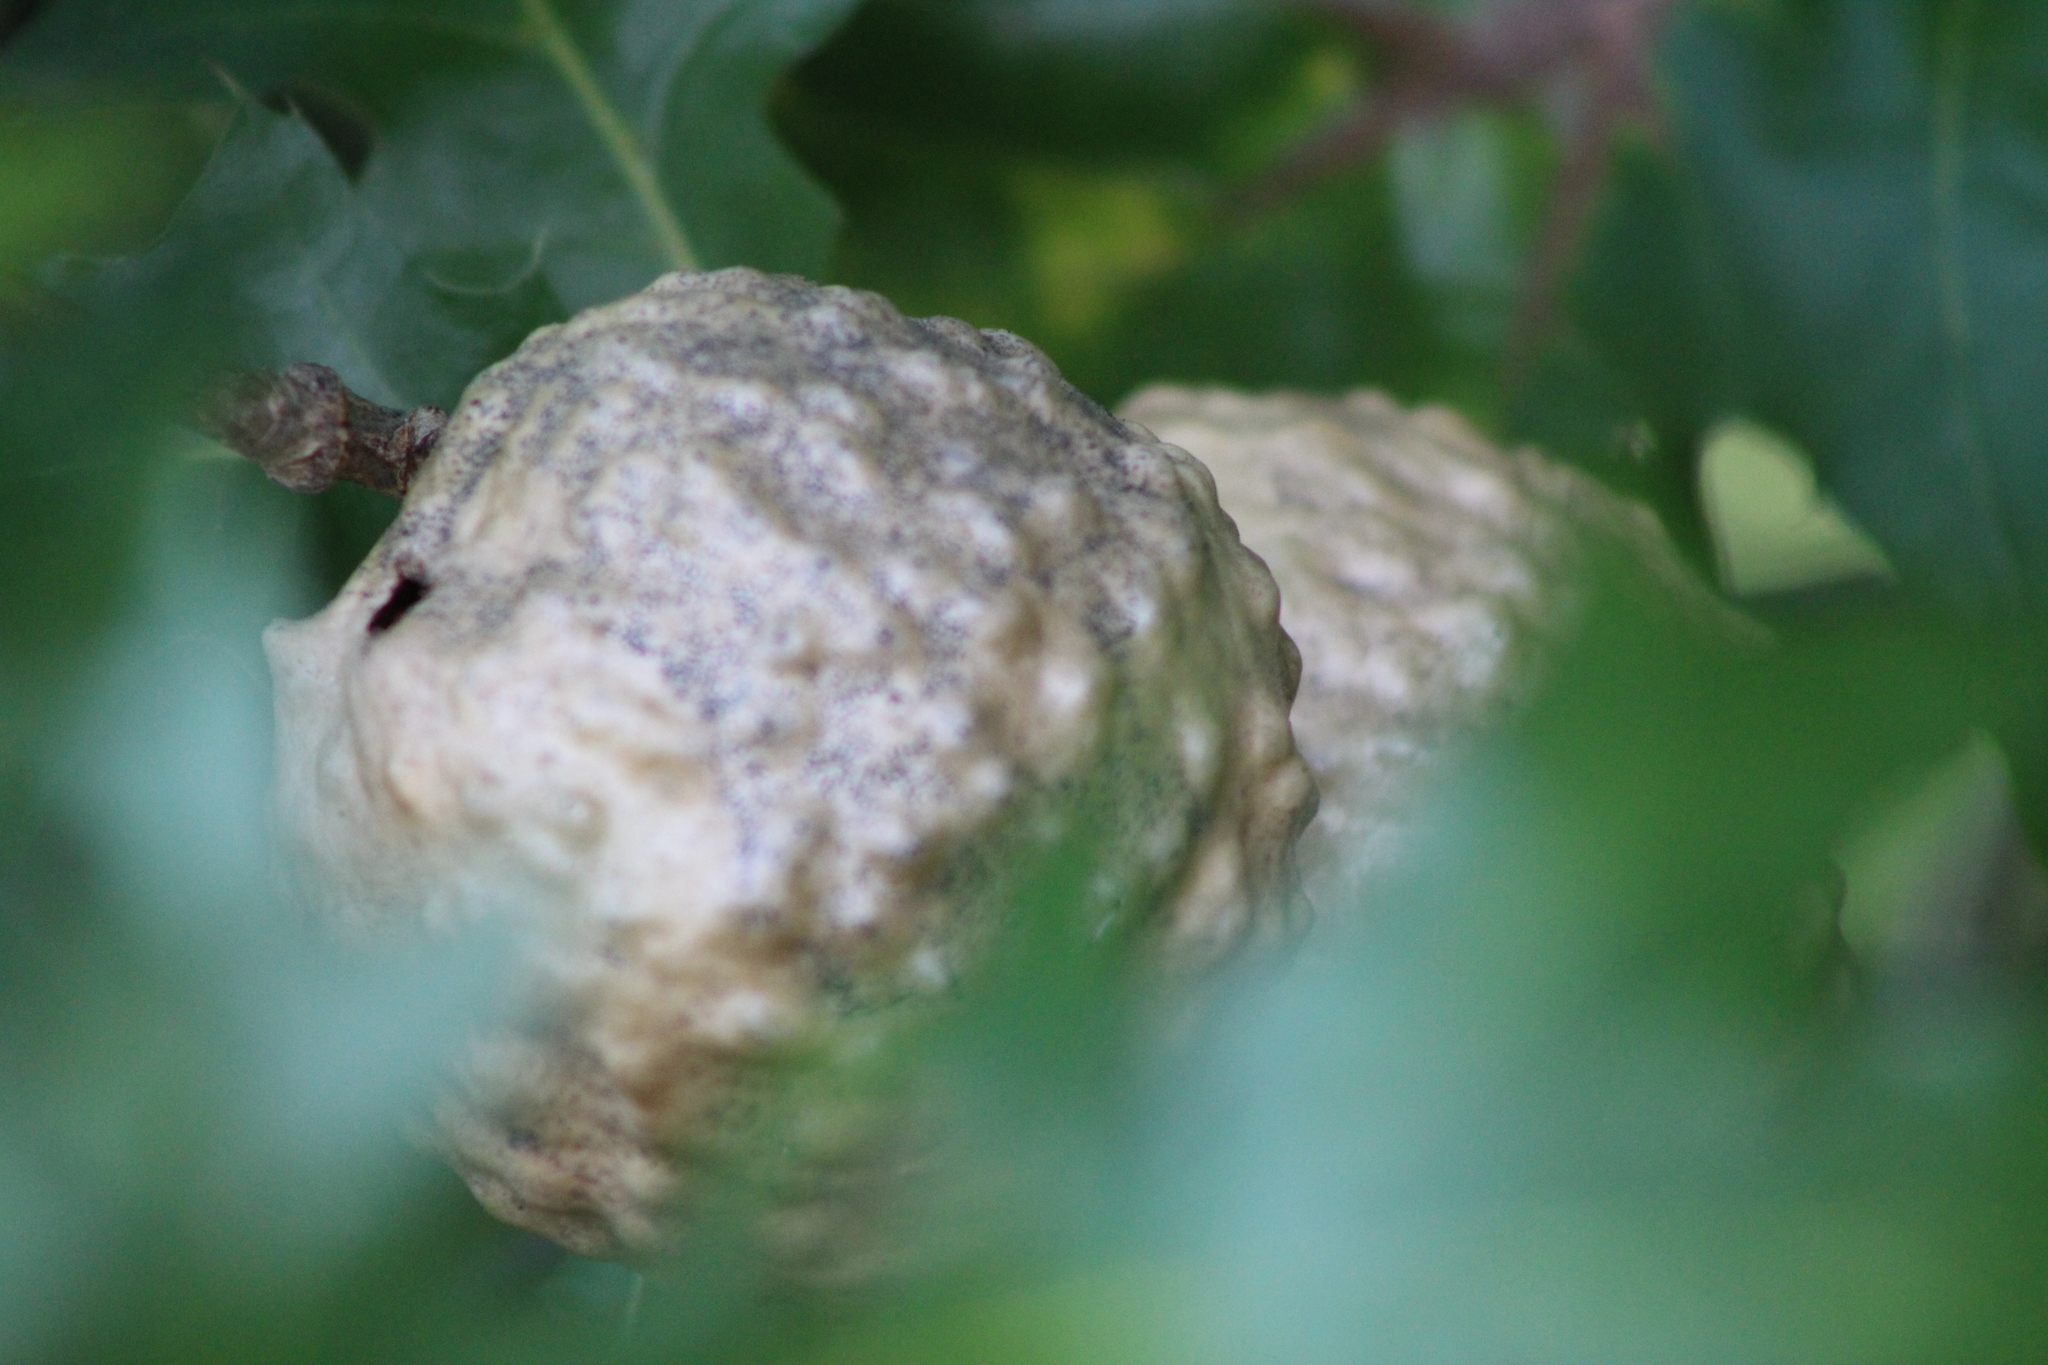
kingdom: Animalia
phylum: Arthropoda
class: Insecta
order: Hymenoptera
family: Cynipidae
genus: Amphibolips
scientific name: Amphibolips
